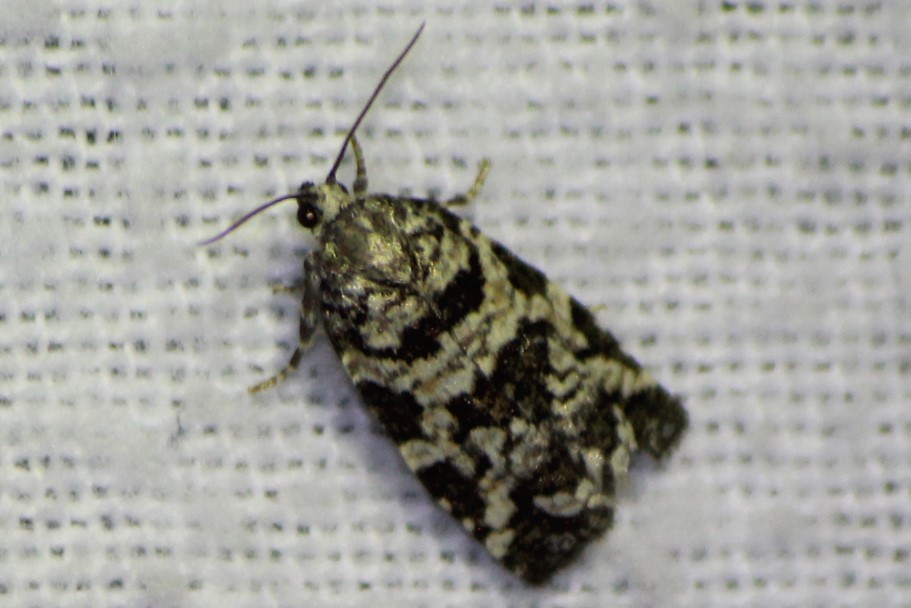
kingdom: Animalia
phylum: Arthropoda
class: Insecta
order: Lepidoptera
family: Tortricidae
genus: Archips
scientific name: Archips packardiana
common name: Spring spruce needle moth
